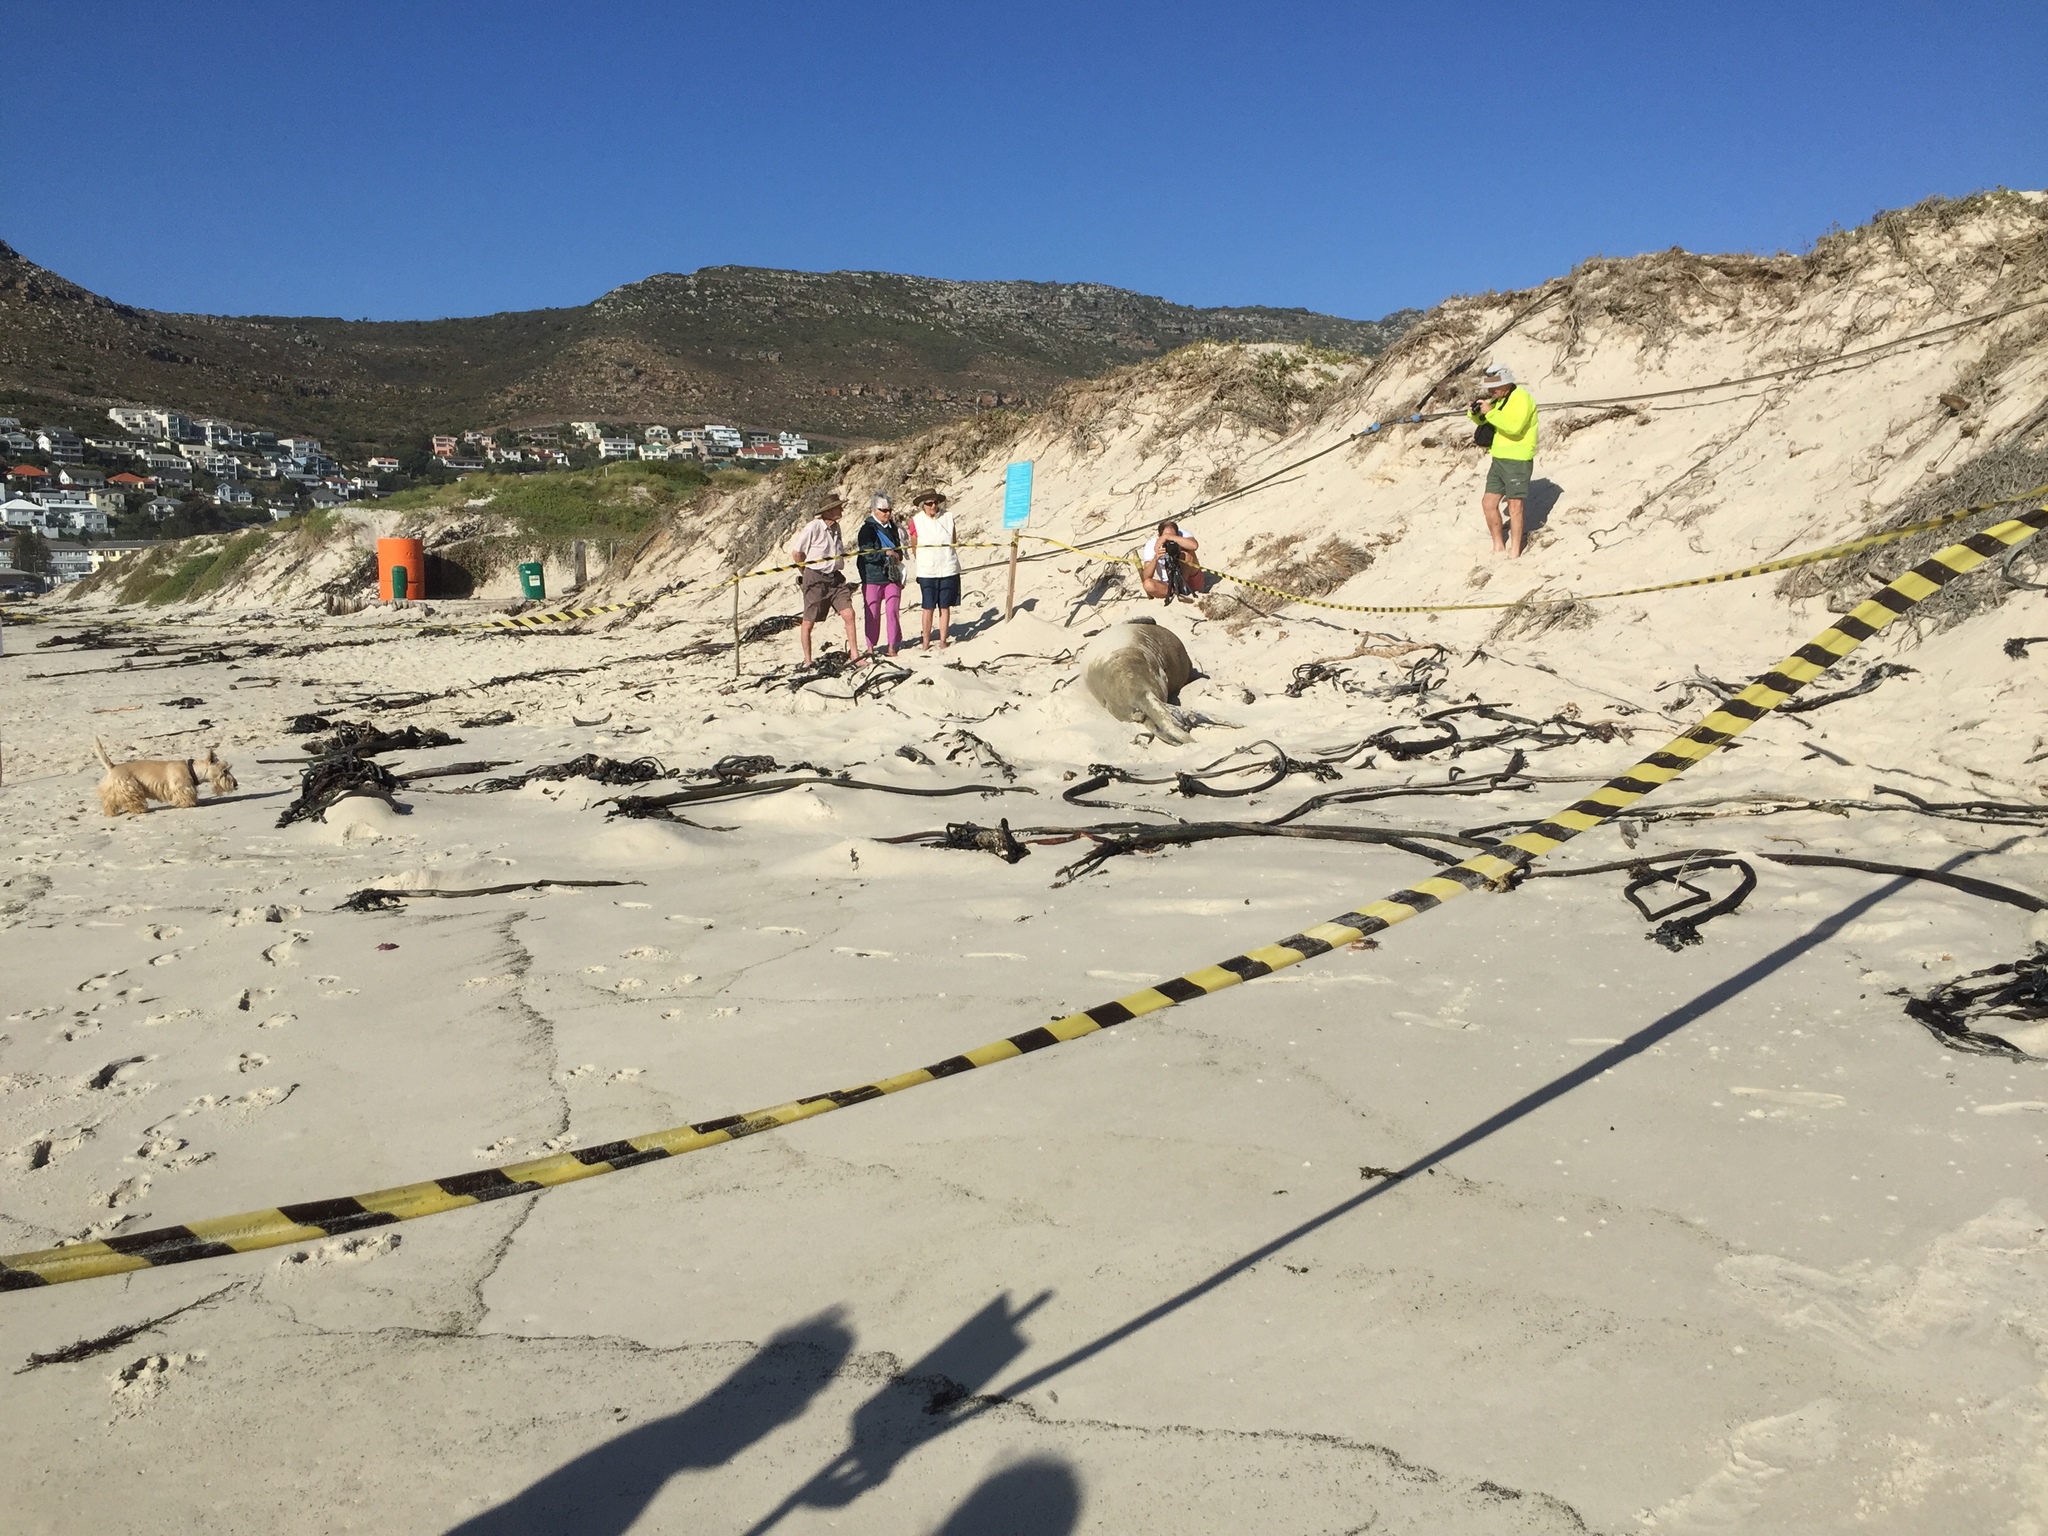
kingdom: Animalia
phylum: Chordata
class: Mammalia
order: Carnivora
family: Phocidae
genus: Mirounga
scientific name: Mirounga leonina
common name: Southern elephant seal
